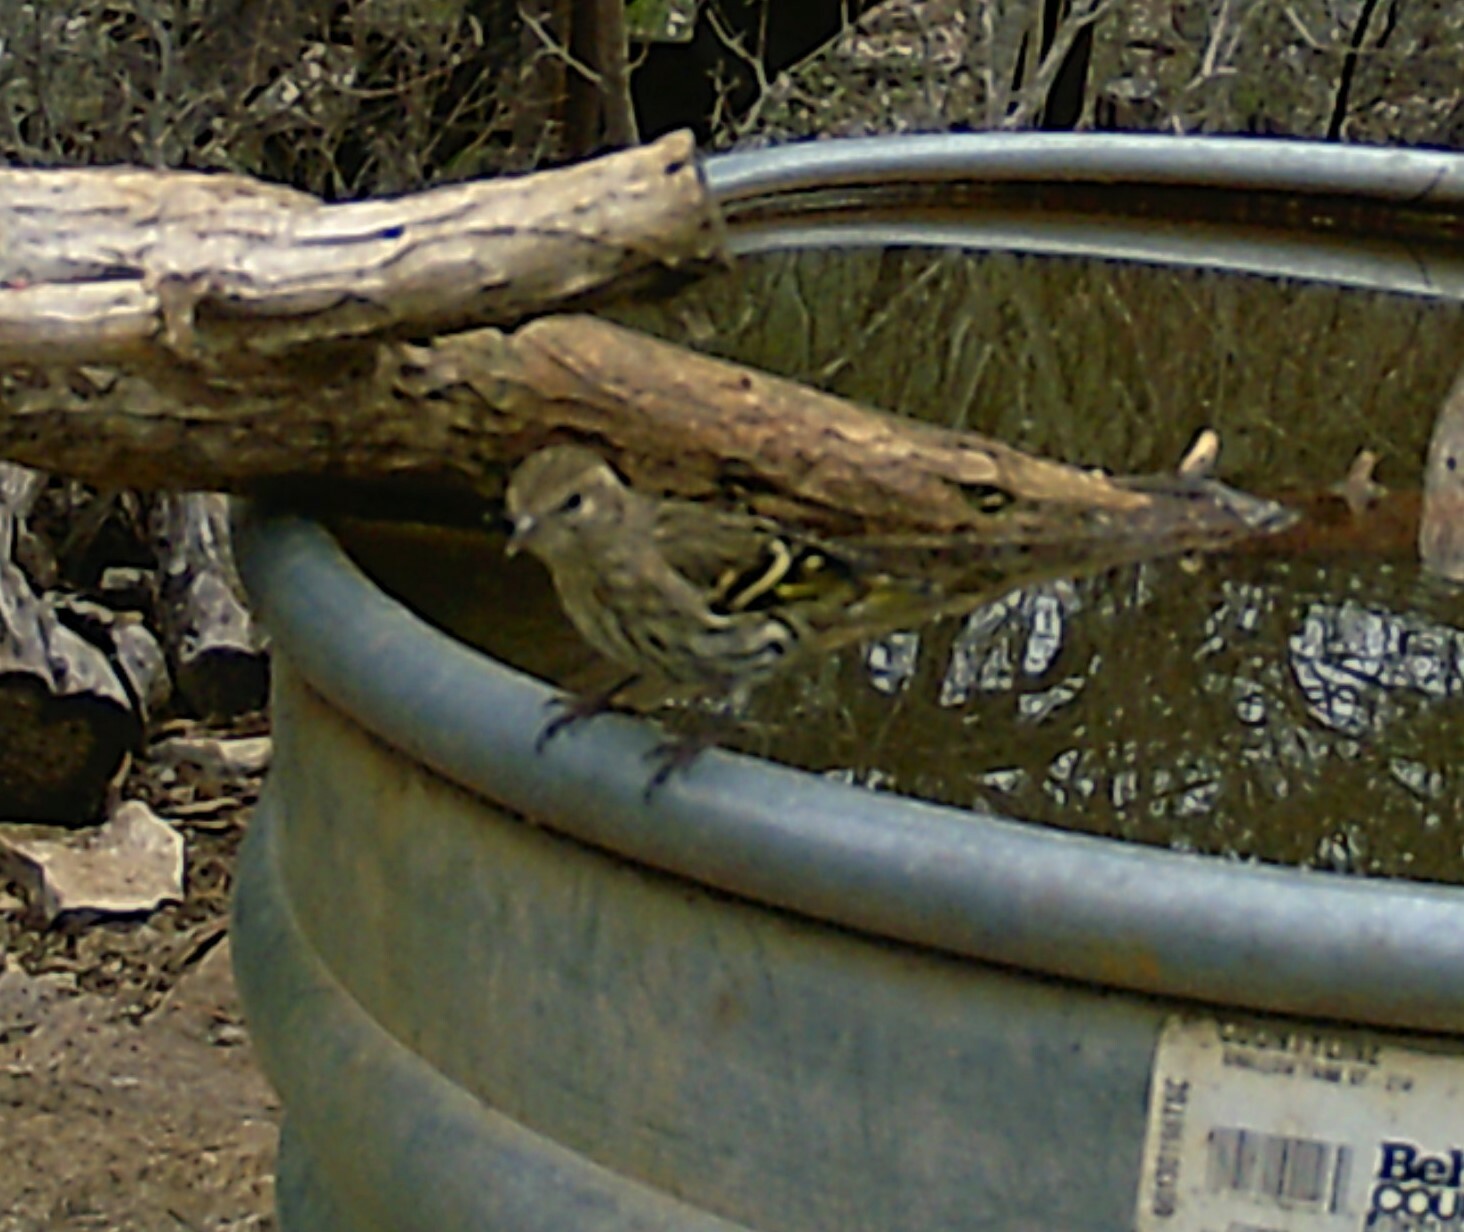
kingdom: Animalia
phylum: Chordata
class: Aves
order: Passeriformes
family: Fringillidae
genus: Spinus
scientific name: Spinus pinus
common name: Pine siskin
